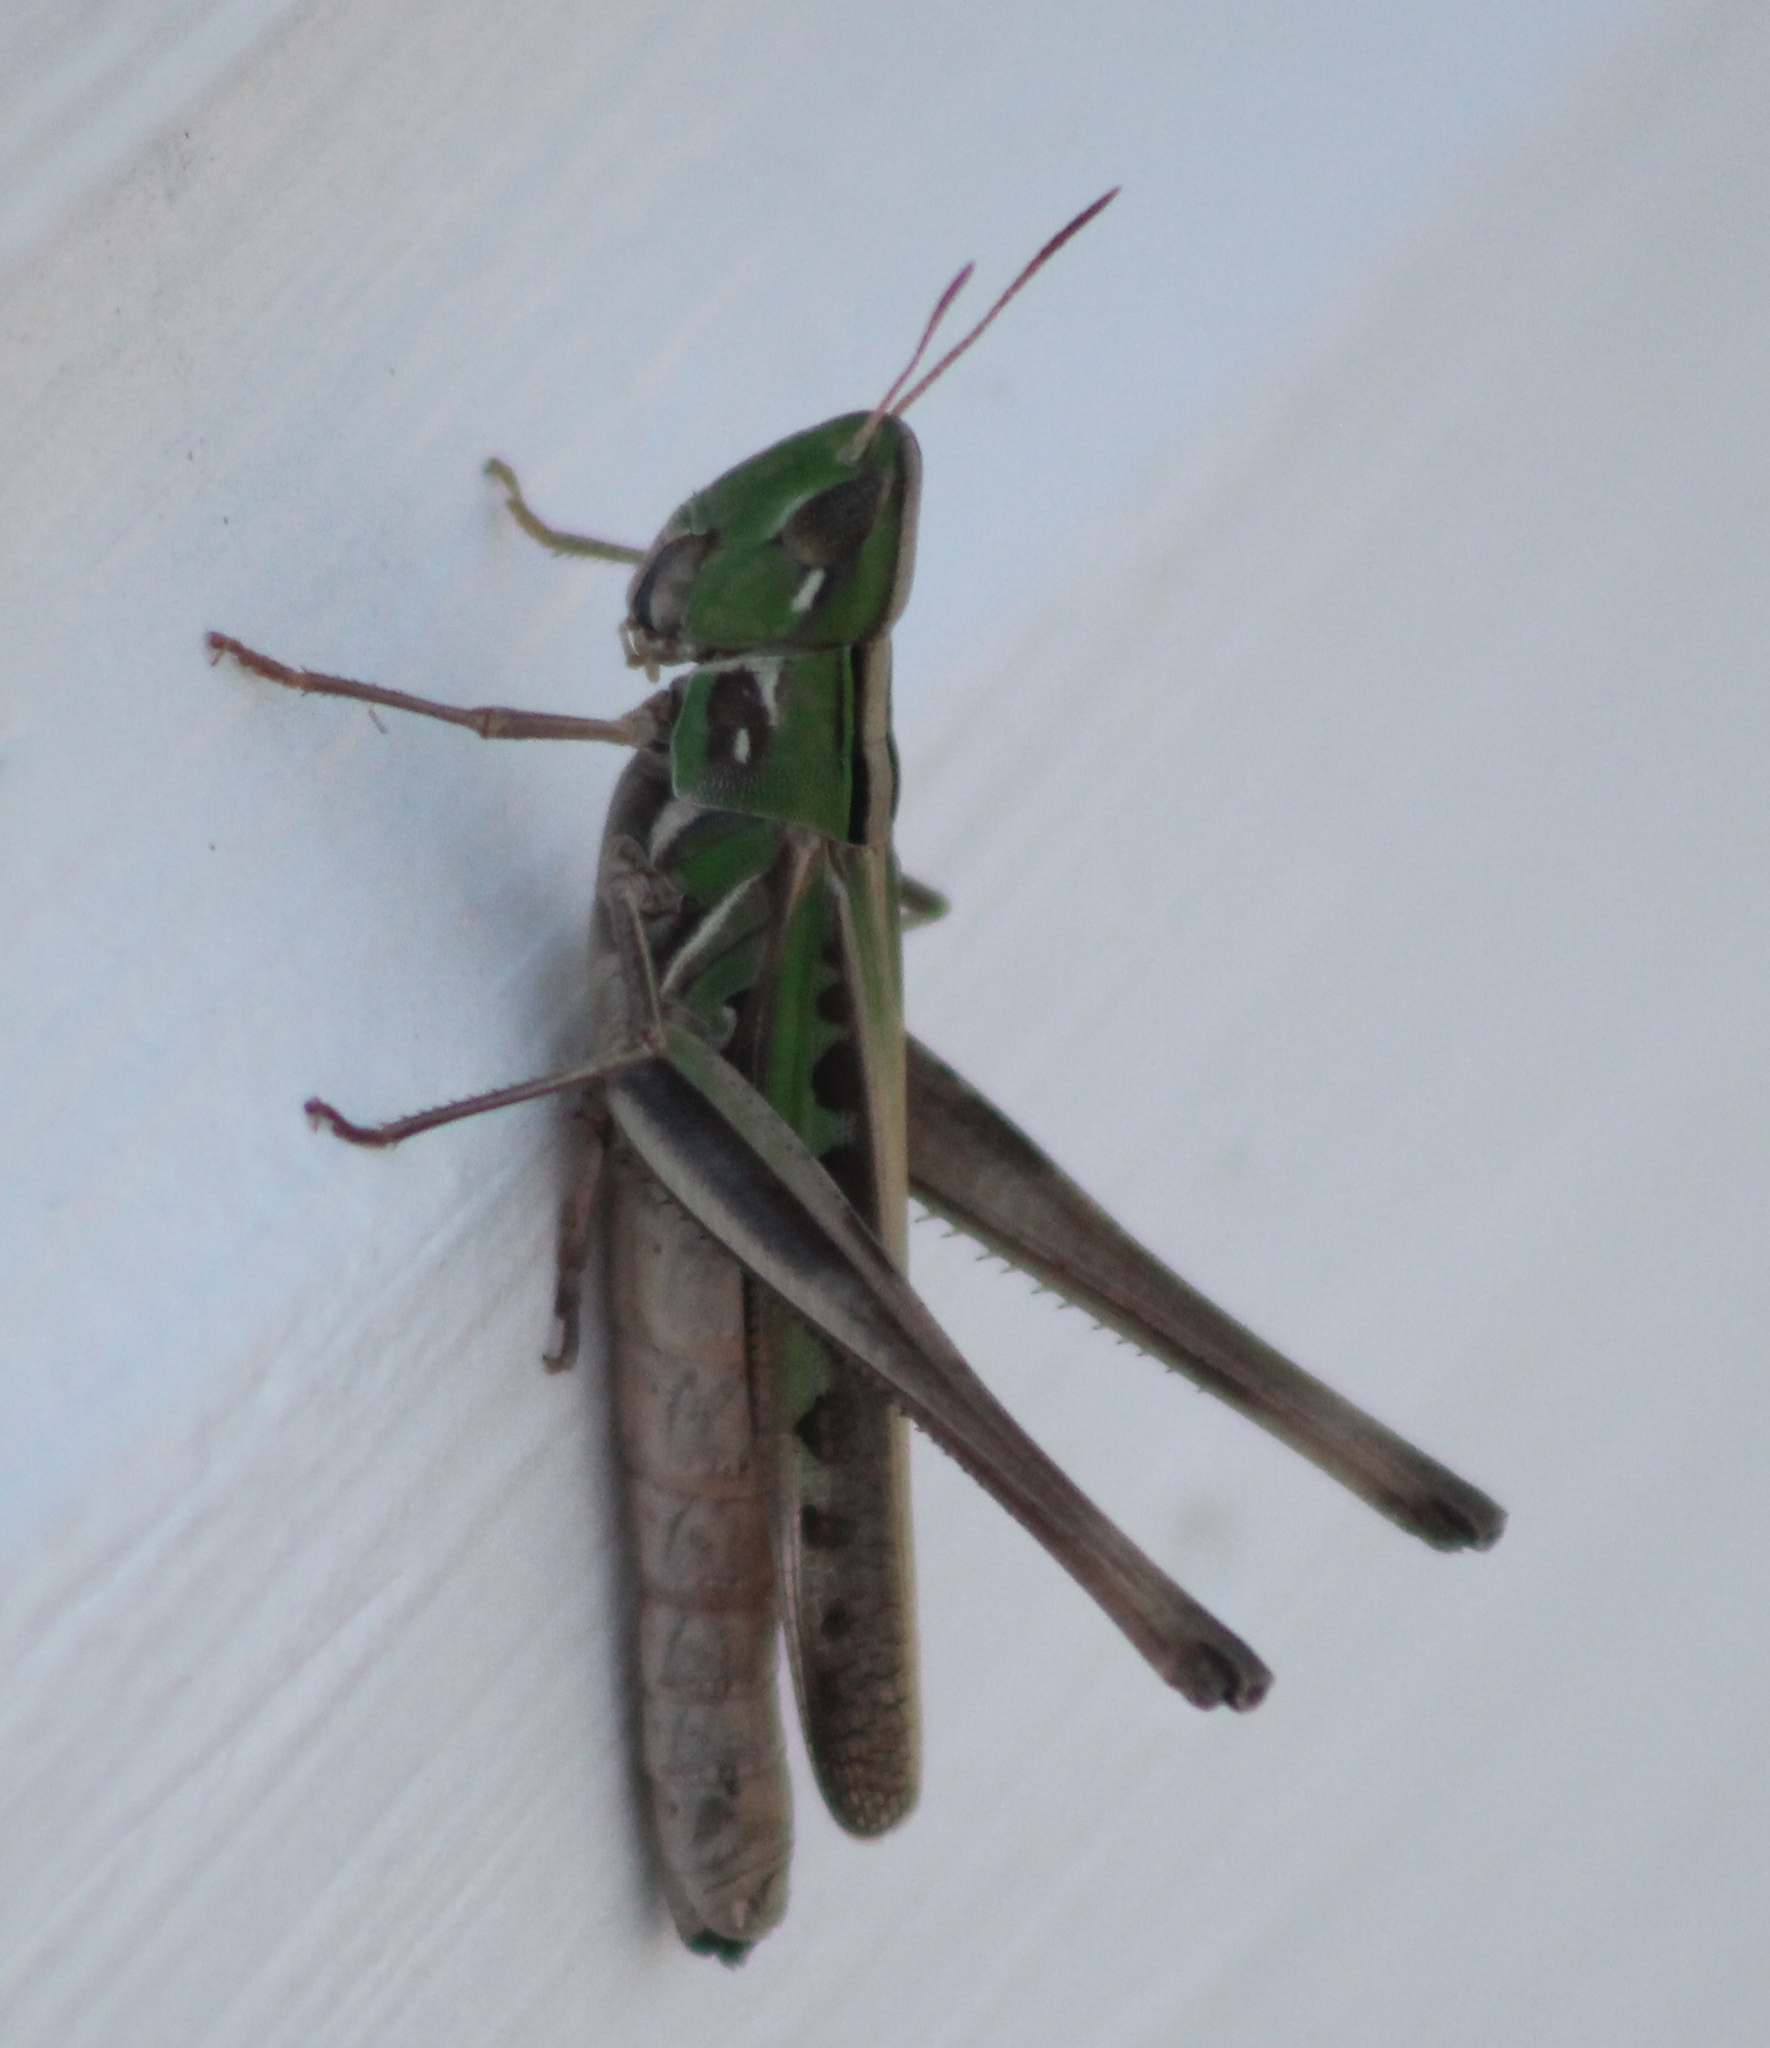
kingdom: Animalia
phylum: Arthropoda
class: Insecta
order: Orthoptera
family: Acrididae
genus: Syrbula
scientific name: Syrbula admirabilis
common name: Handsome grasshopper
